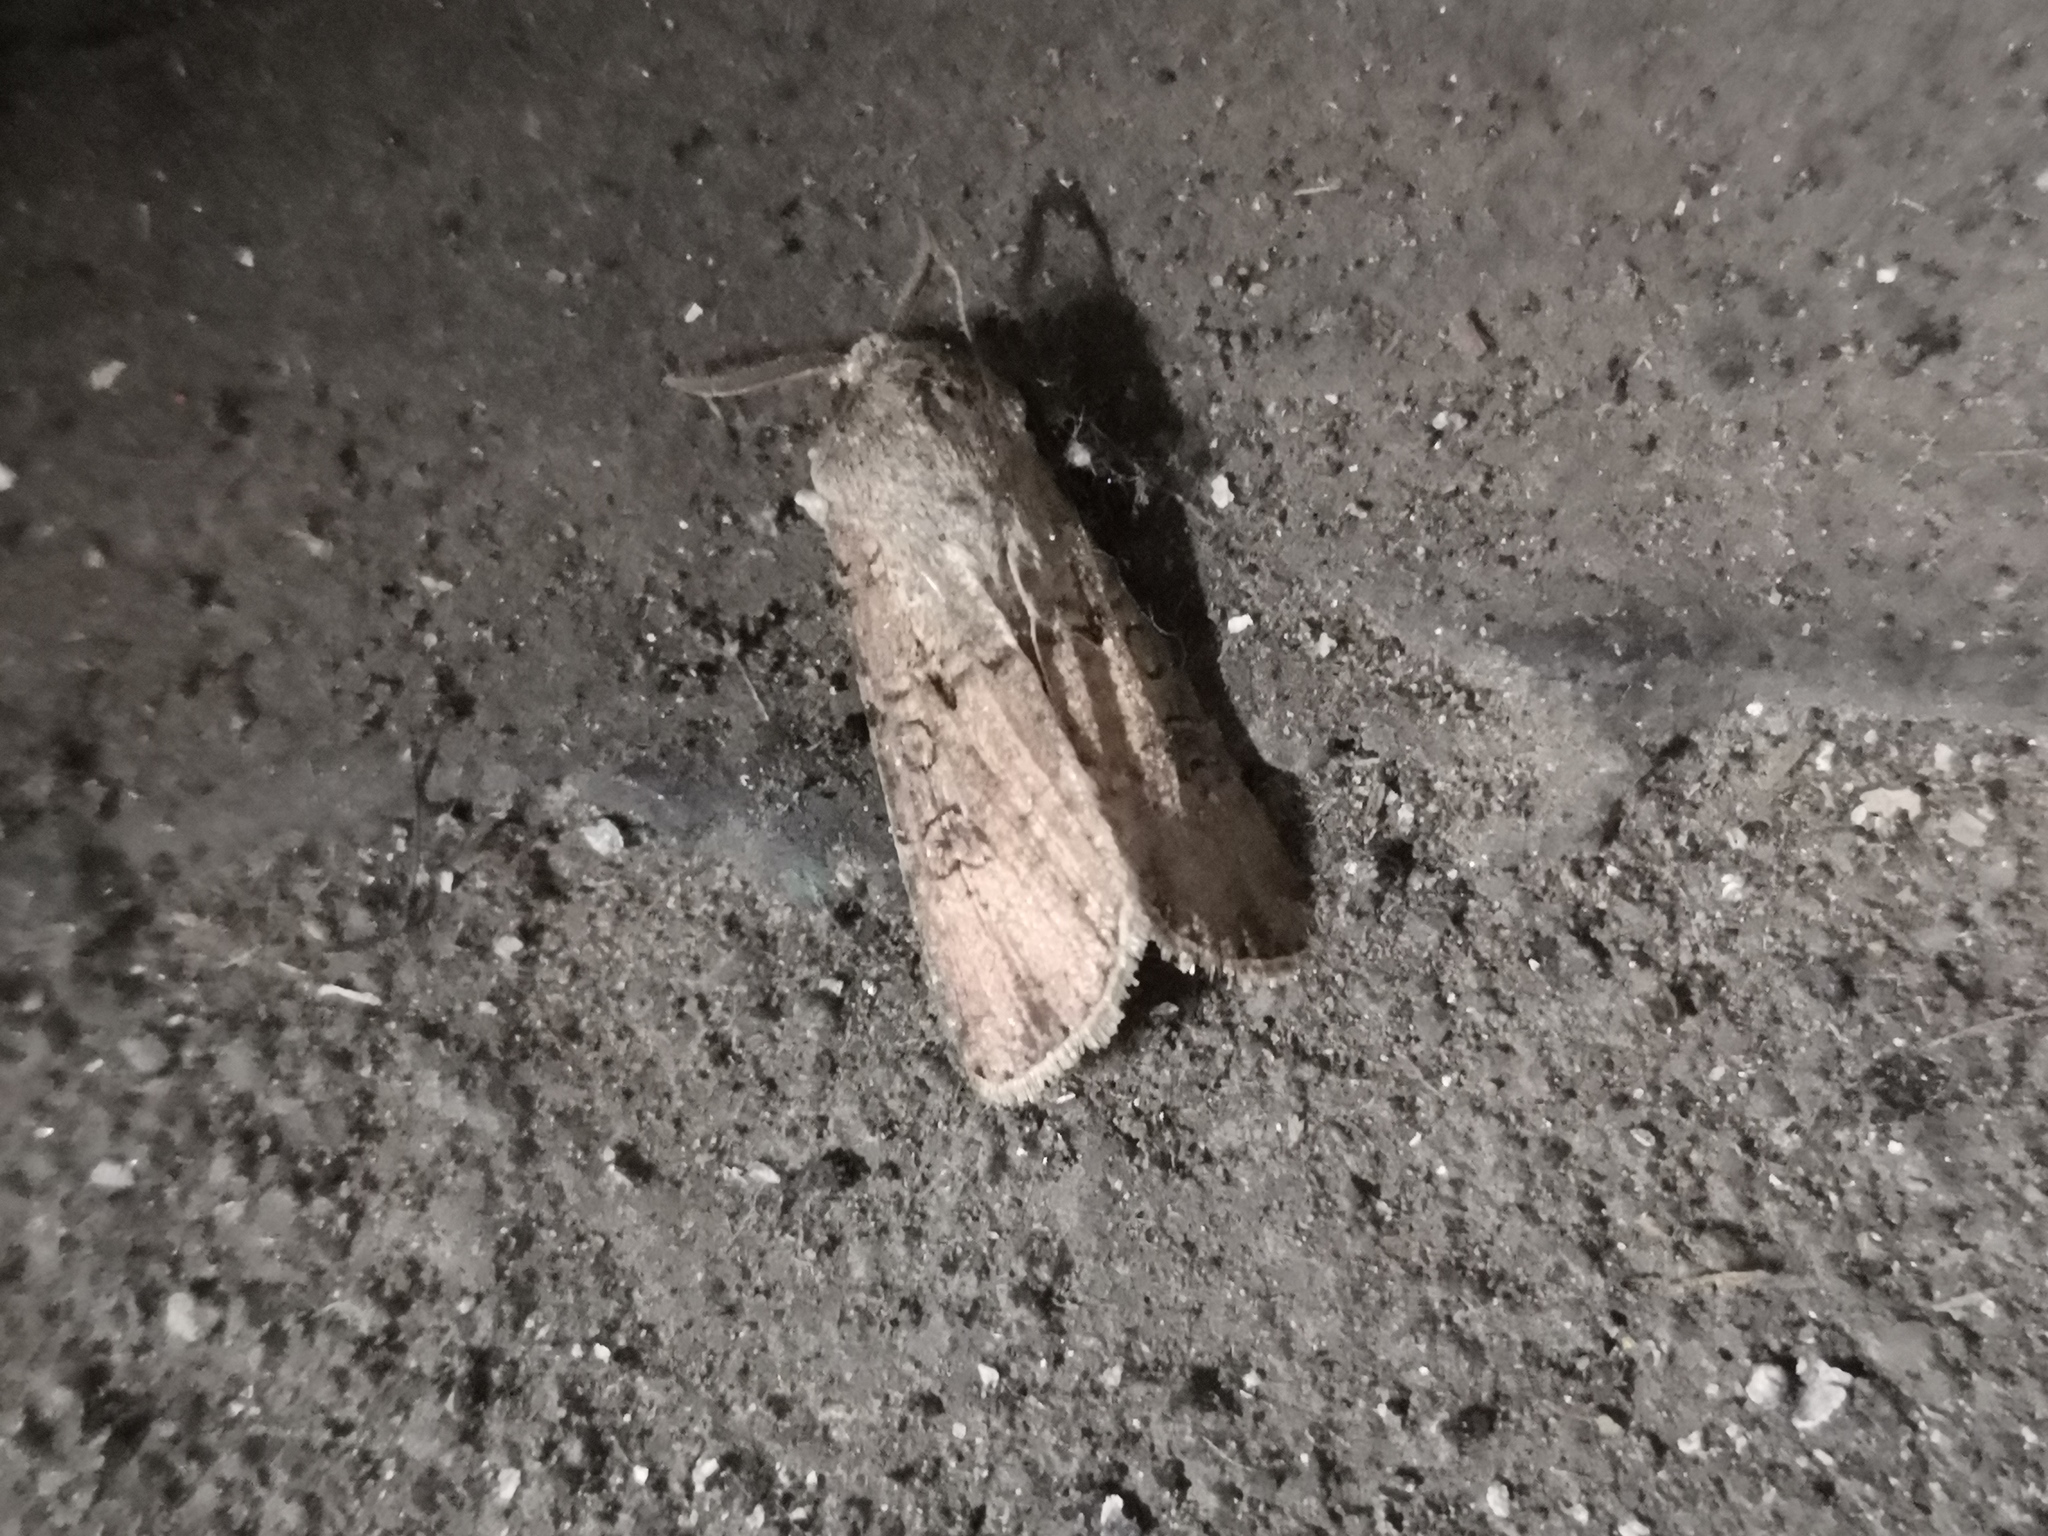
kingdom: Animalia
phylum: Arthropoda
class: Insecta
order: Lepidoptera
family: Noctuidae
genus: Agrotis
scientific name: Agrotis segetum
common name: Turnip moth
